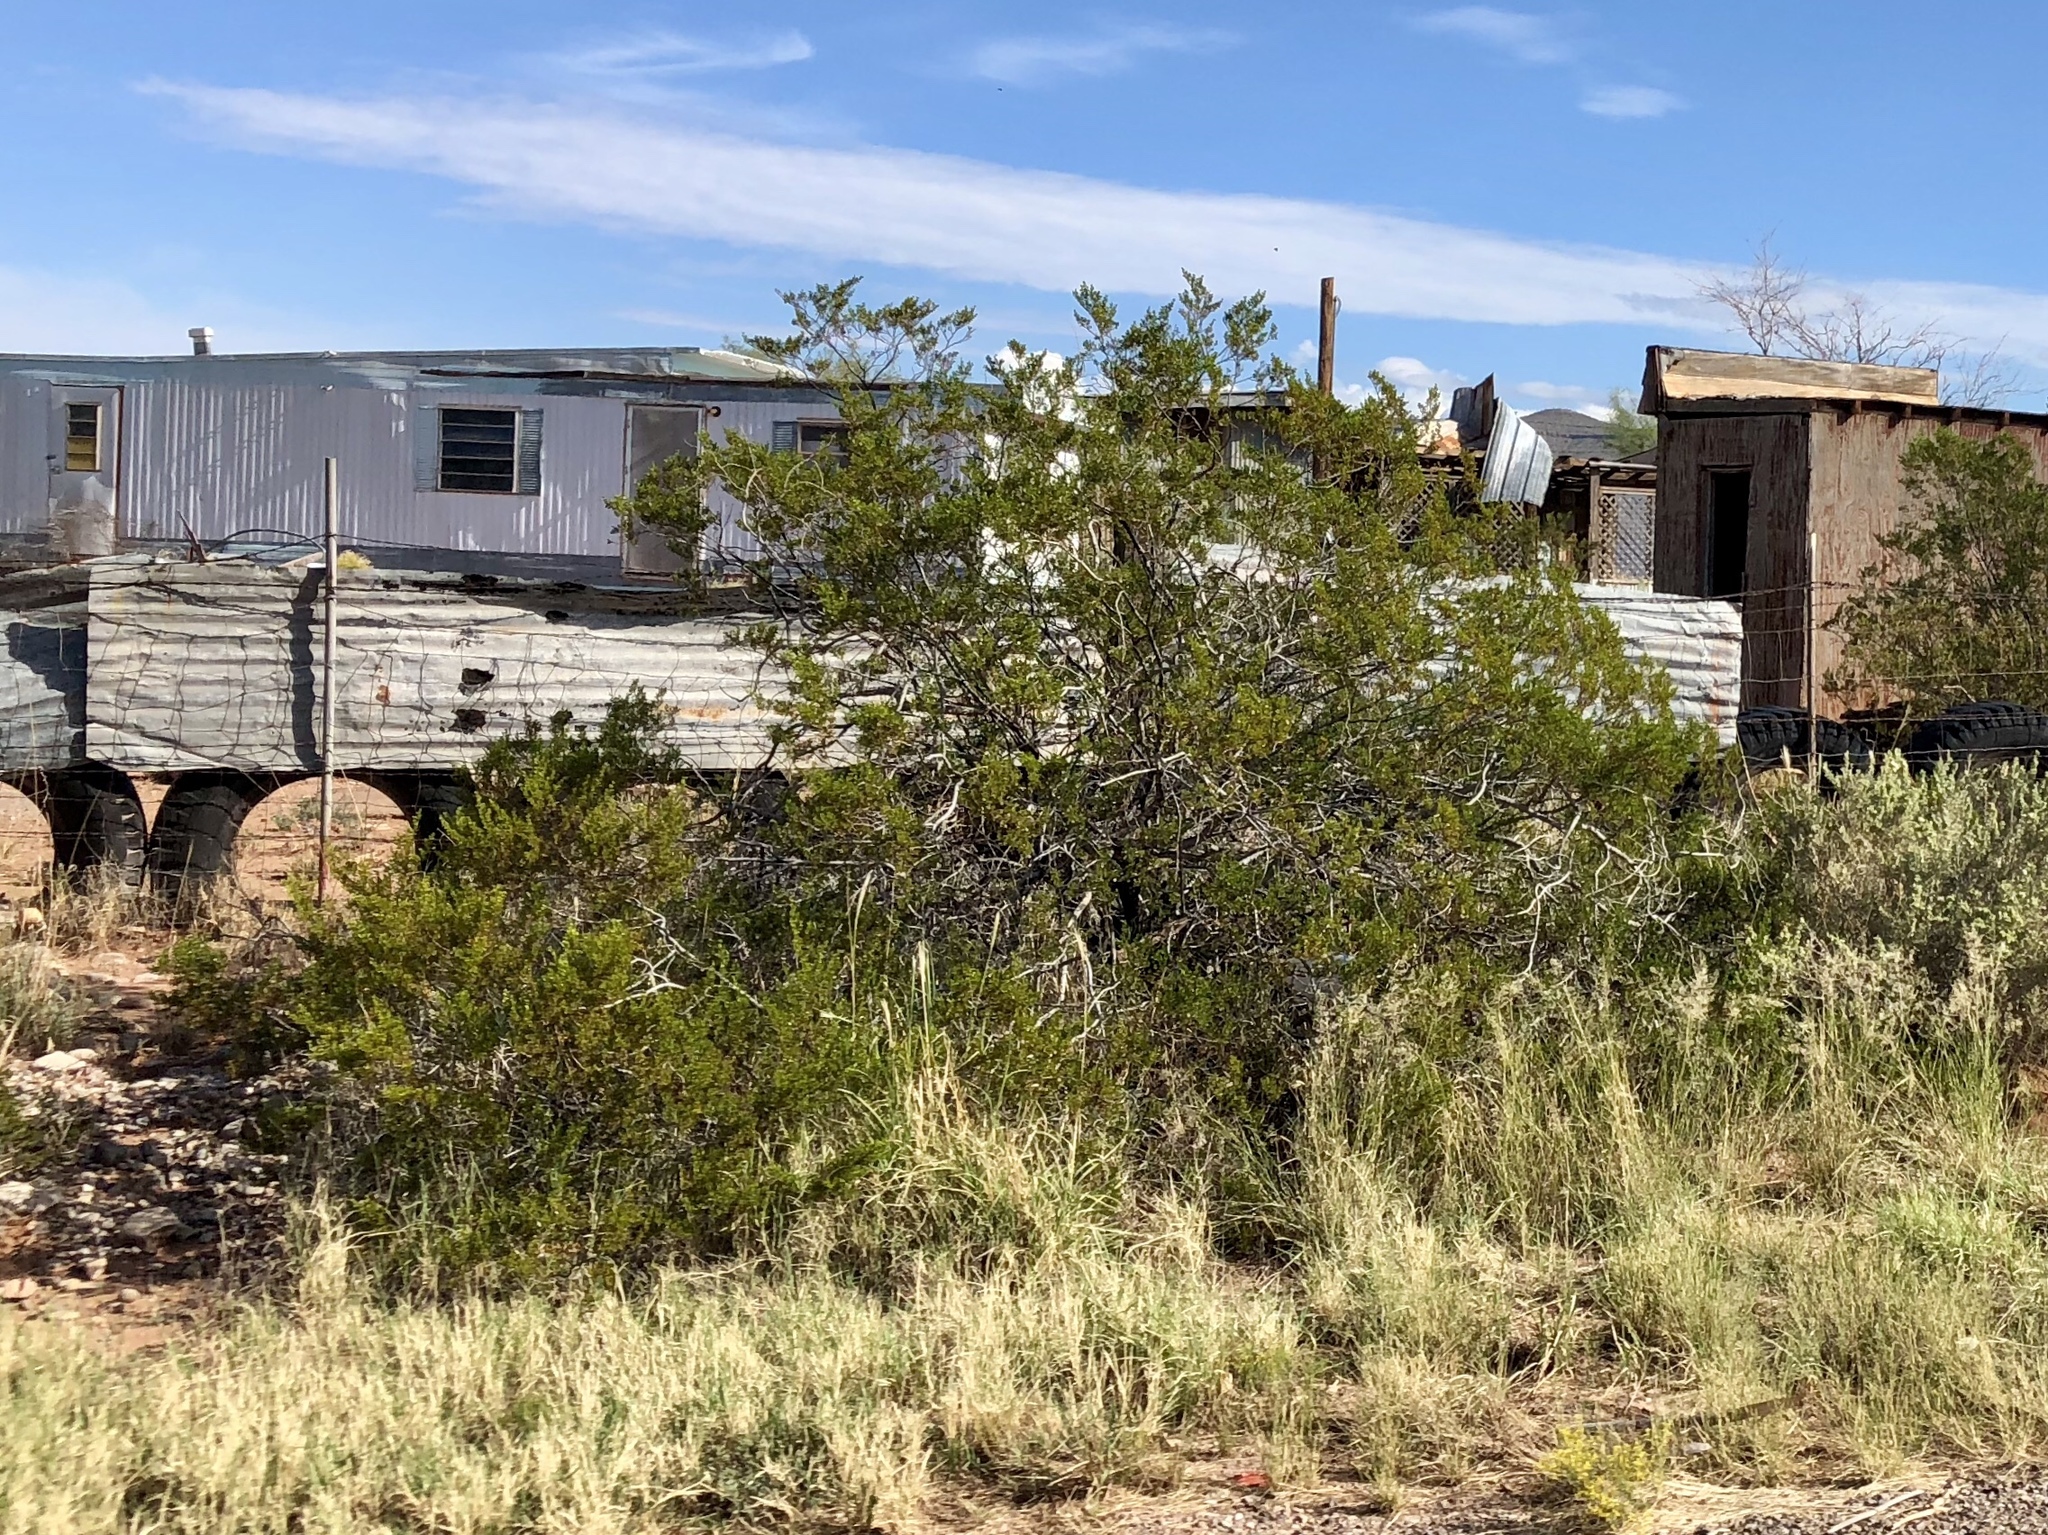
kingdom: Plantae
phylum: Tracheophyta
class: Magnoliopsida
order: Zygophyllales
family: Zygophyllaceae
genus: Larrea
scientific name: Larrea tridentata
